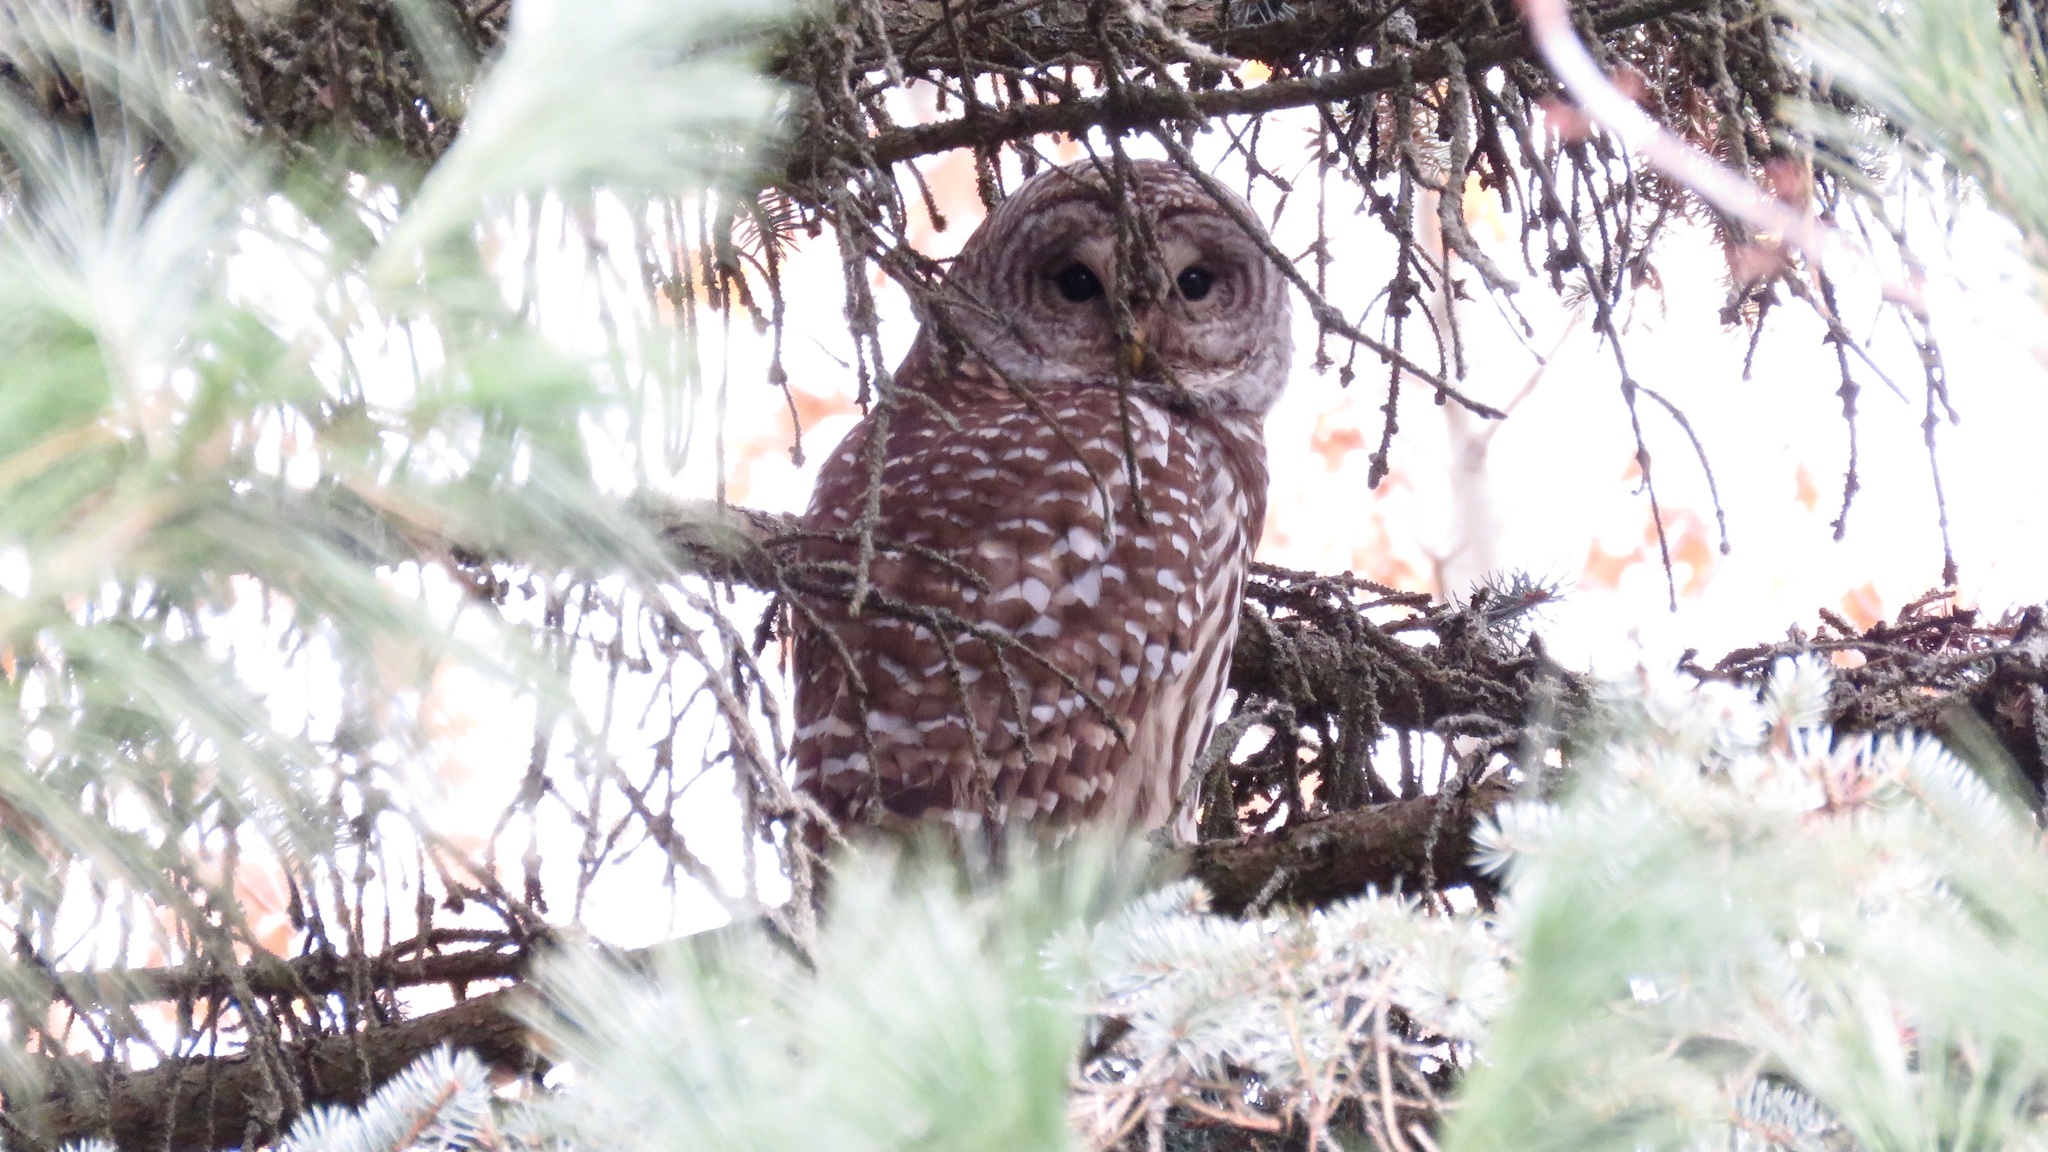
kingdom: Animalia
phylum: Chordata
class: Aves
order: Strigiformes
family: Strigidae
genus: Strix
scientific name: Strix varia
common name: Barred owl
